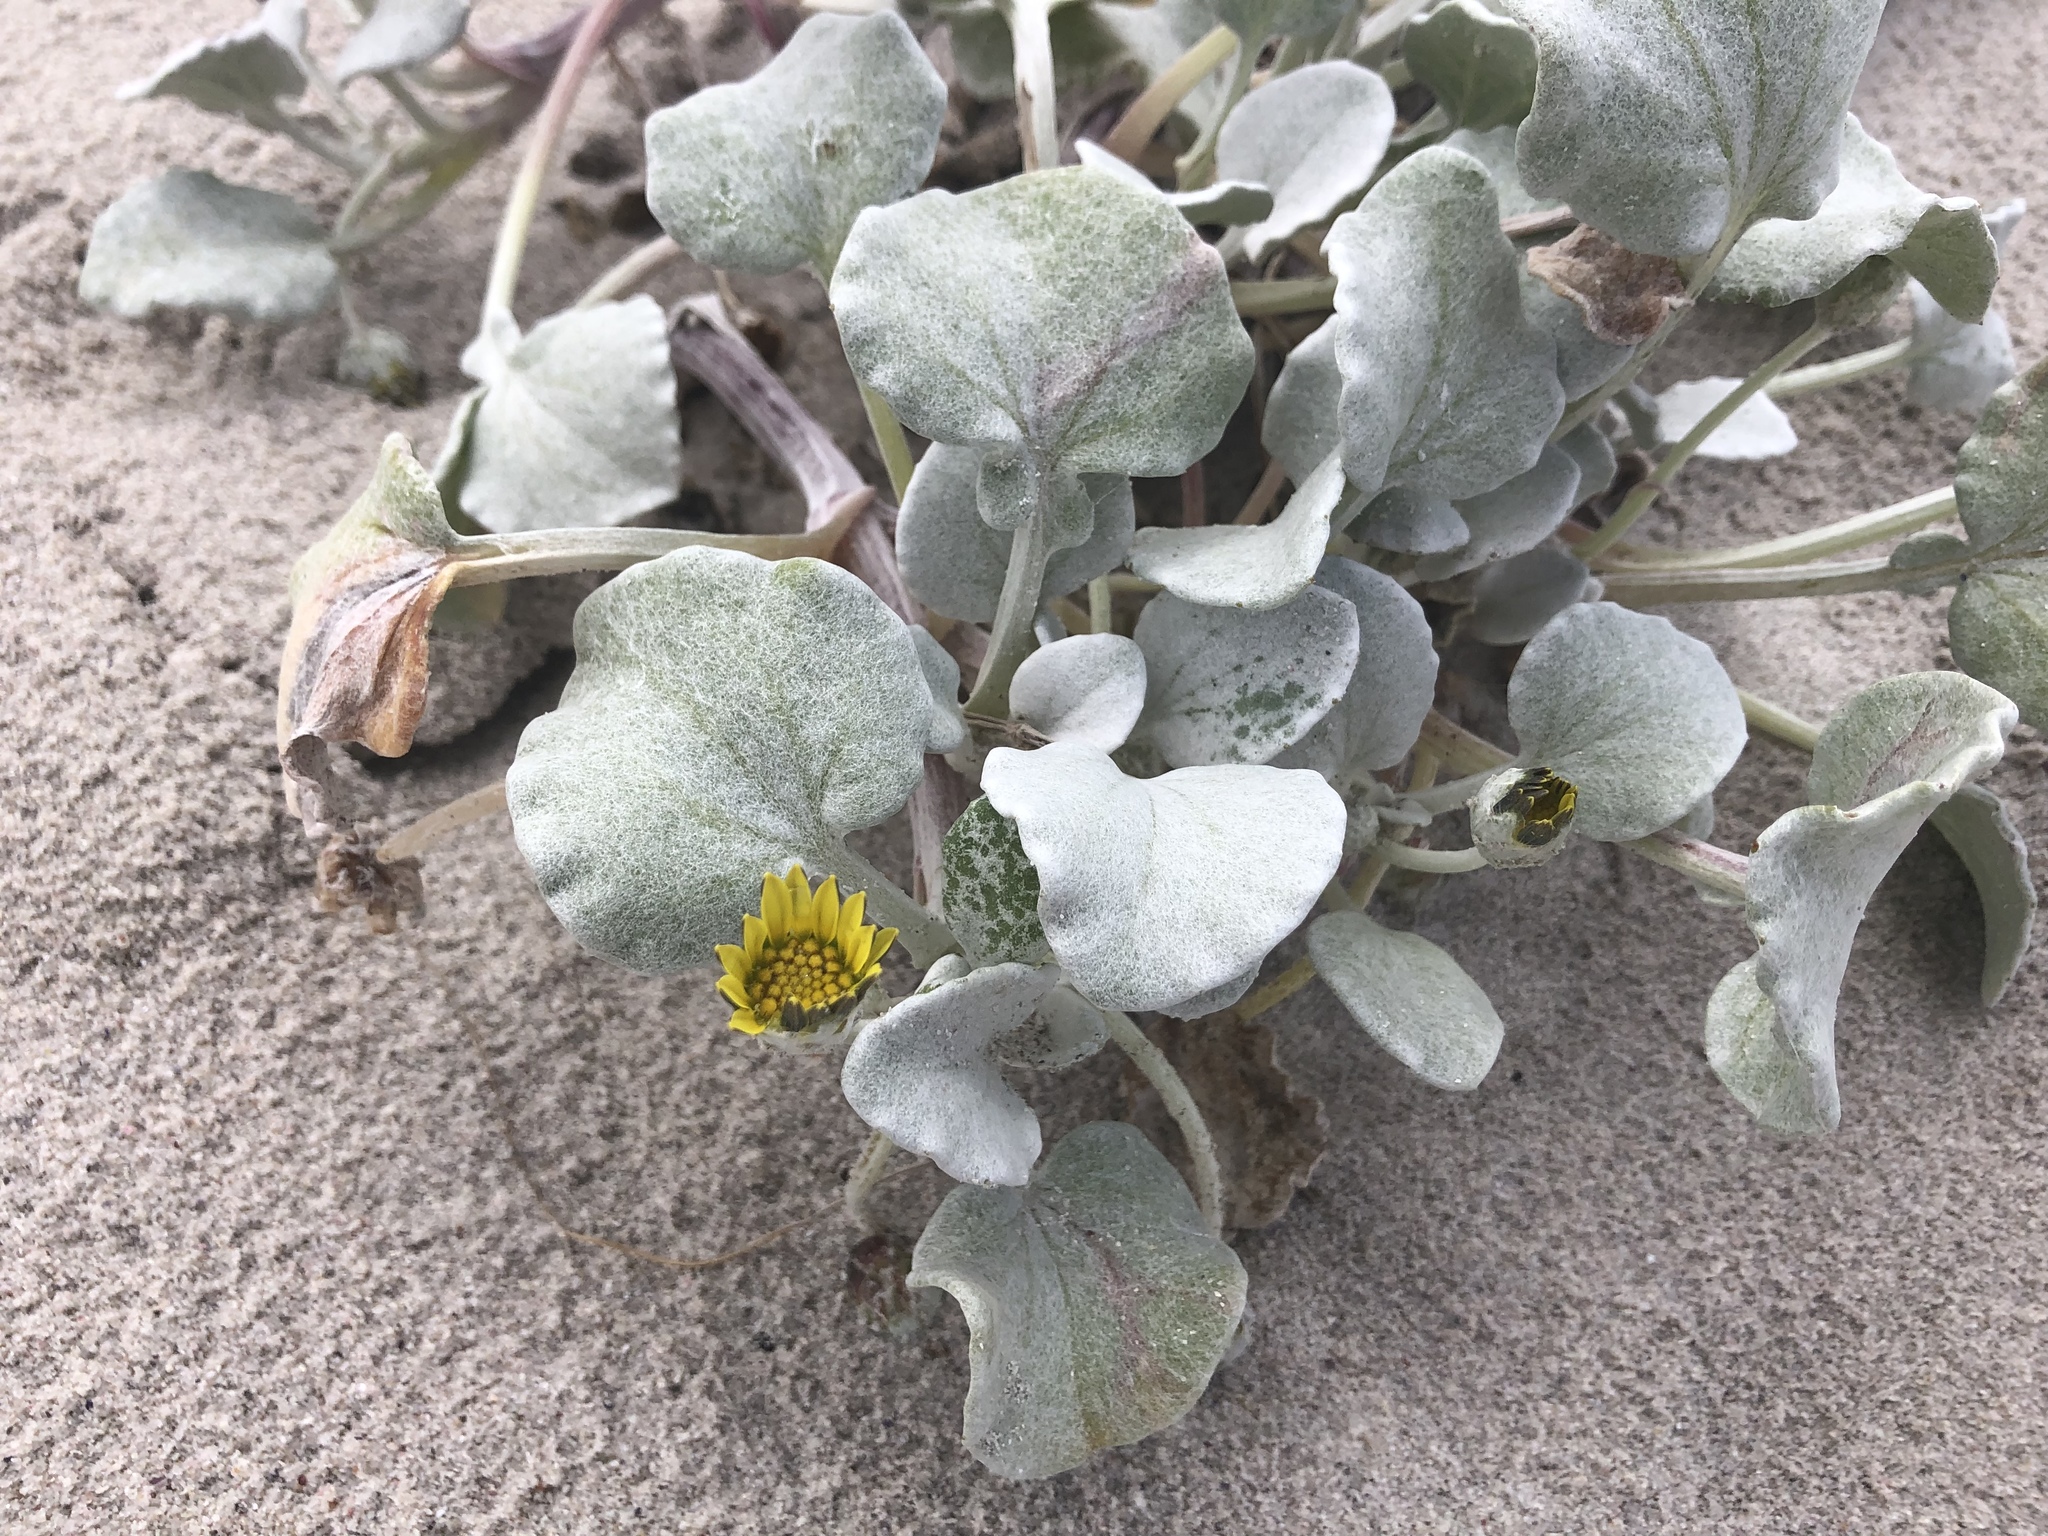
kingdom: Plantae
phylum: Tracheophyta
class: Magnoliopsida
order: Asterales
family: Asteraceae
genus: Arctotheca
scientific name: Arctotheca populifolia
